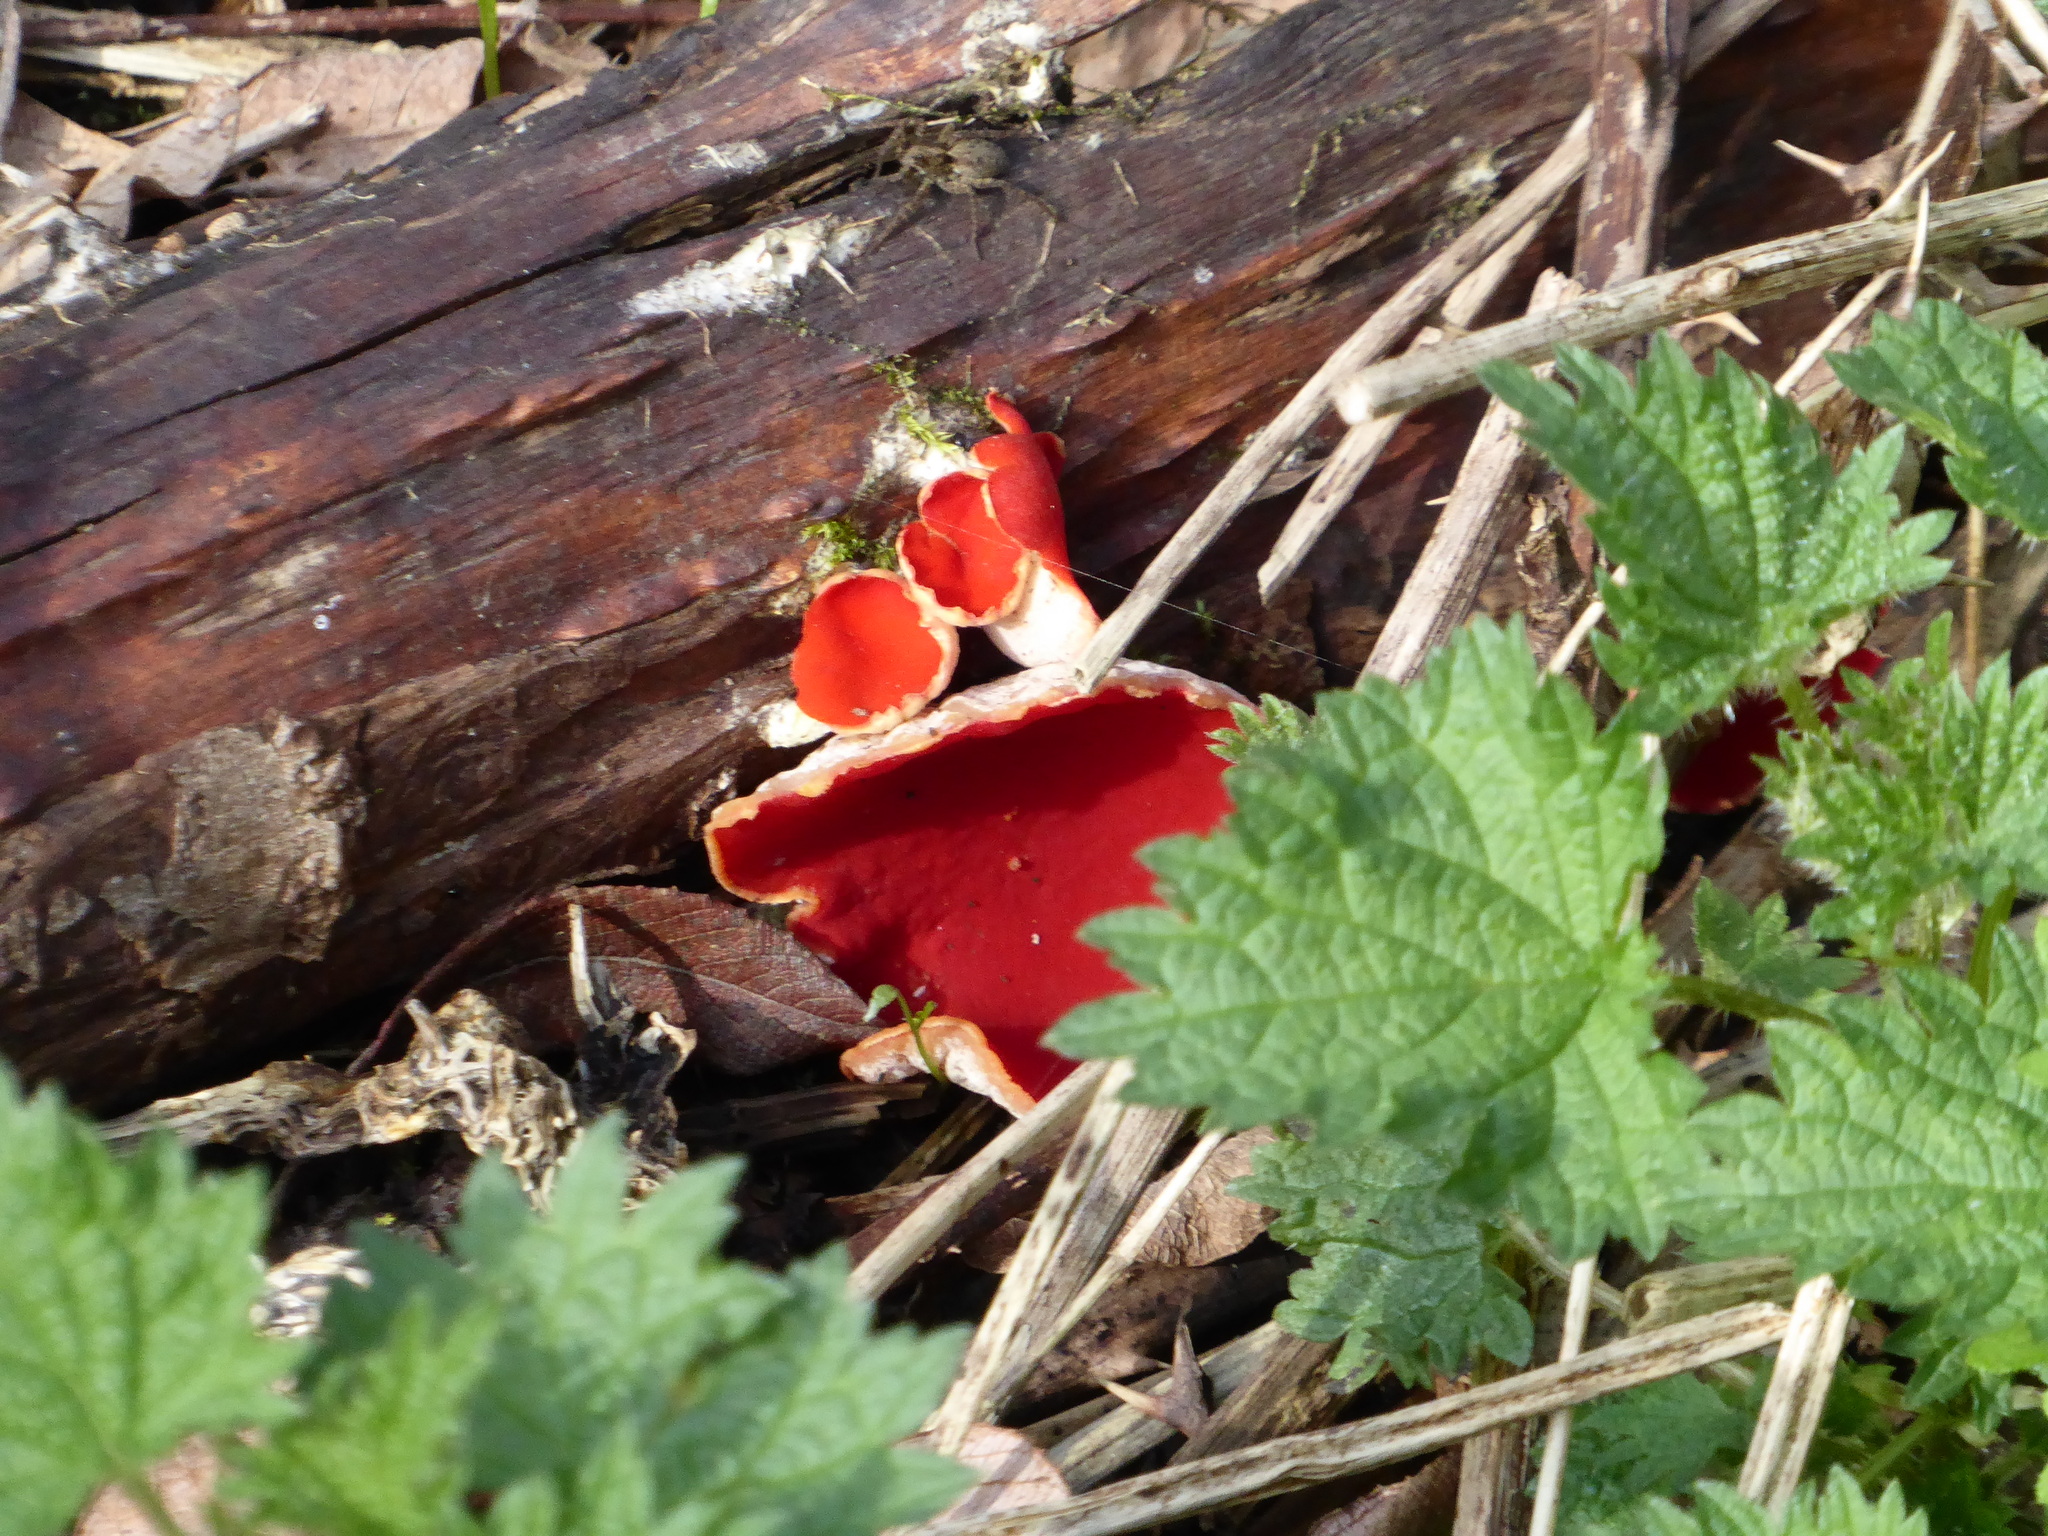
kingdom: Fungi
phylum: Ascomycota
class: Pezizomycetes
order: Pezizales
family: Sarcoscyphaceae
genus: Sarcoscypha
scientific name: Sarcoscypha
